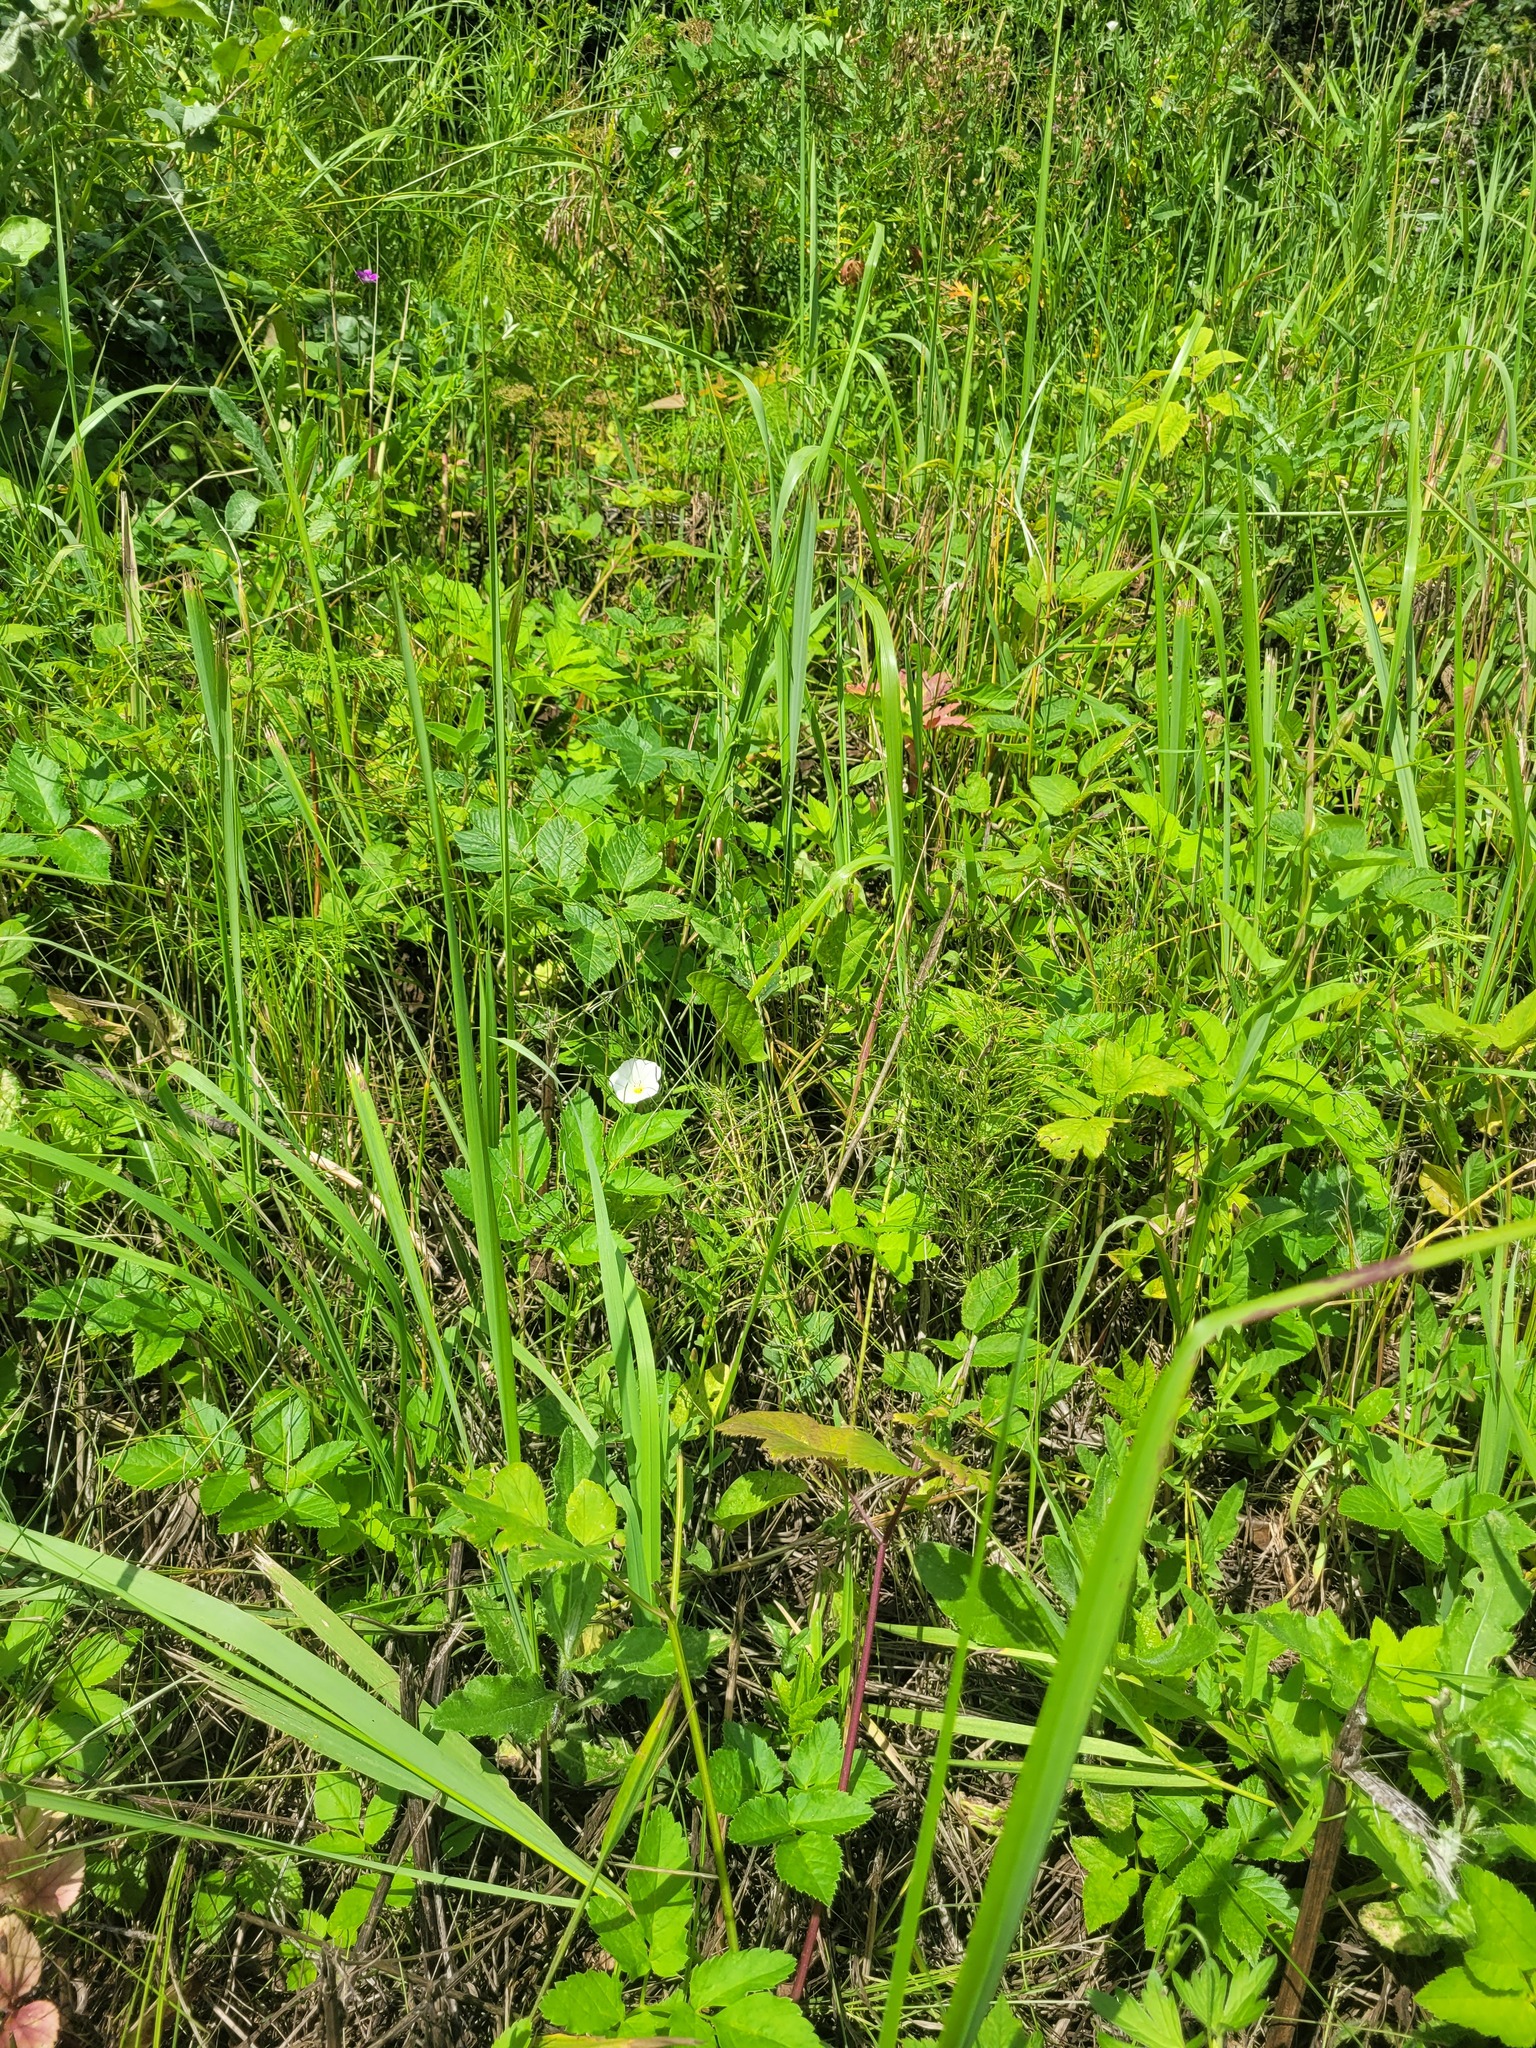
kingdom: Plantae
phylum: Tracheophyta
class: Magnoliopsida
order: Solanales
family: Convolvulaceae
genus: Convolvulus
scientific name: Convolvulus arvensis
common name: Field bindweed
